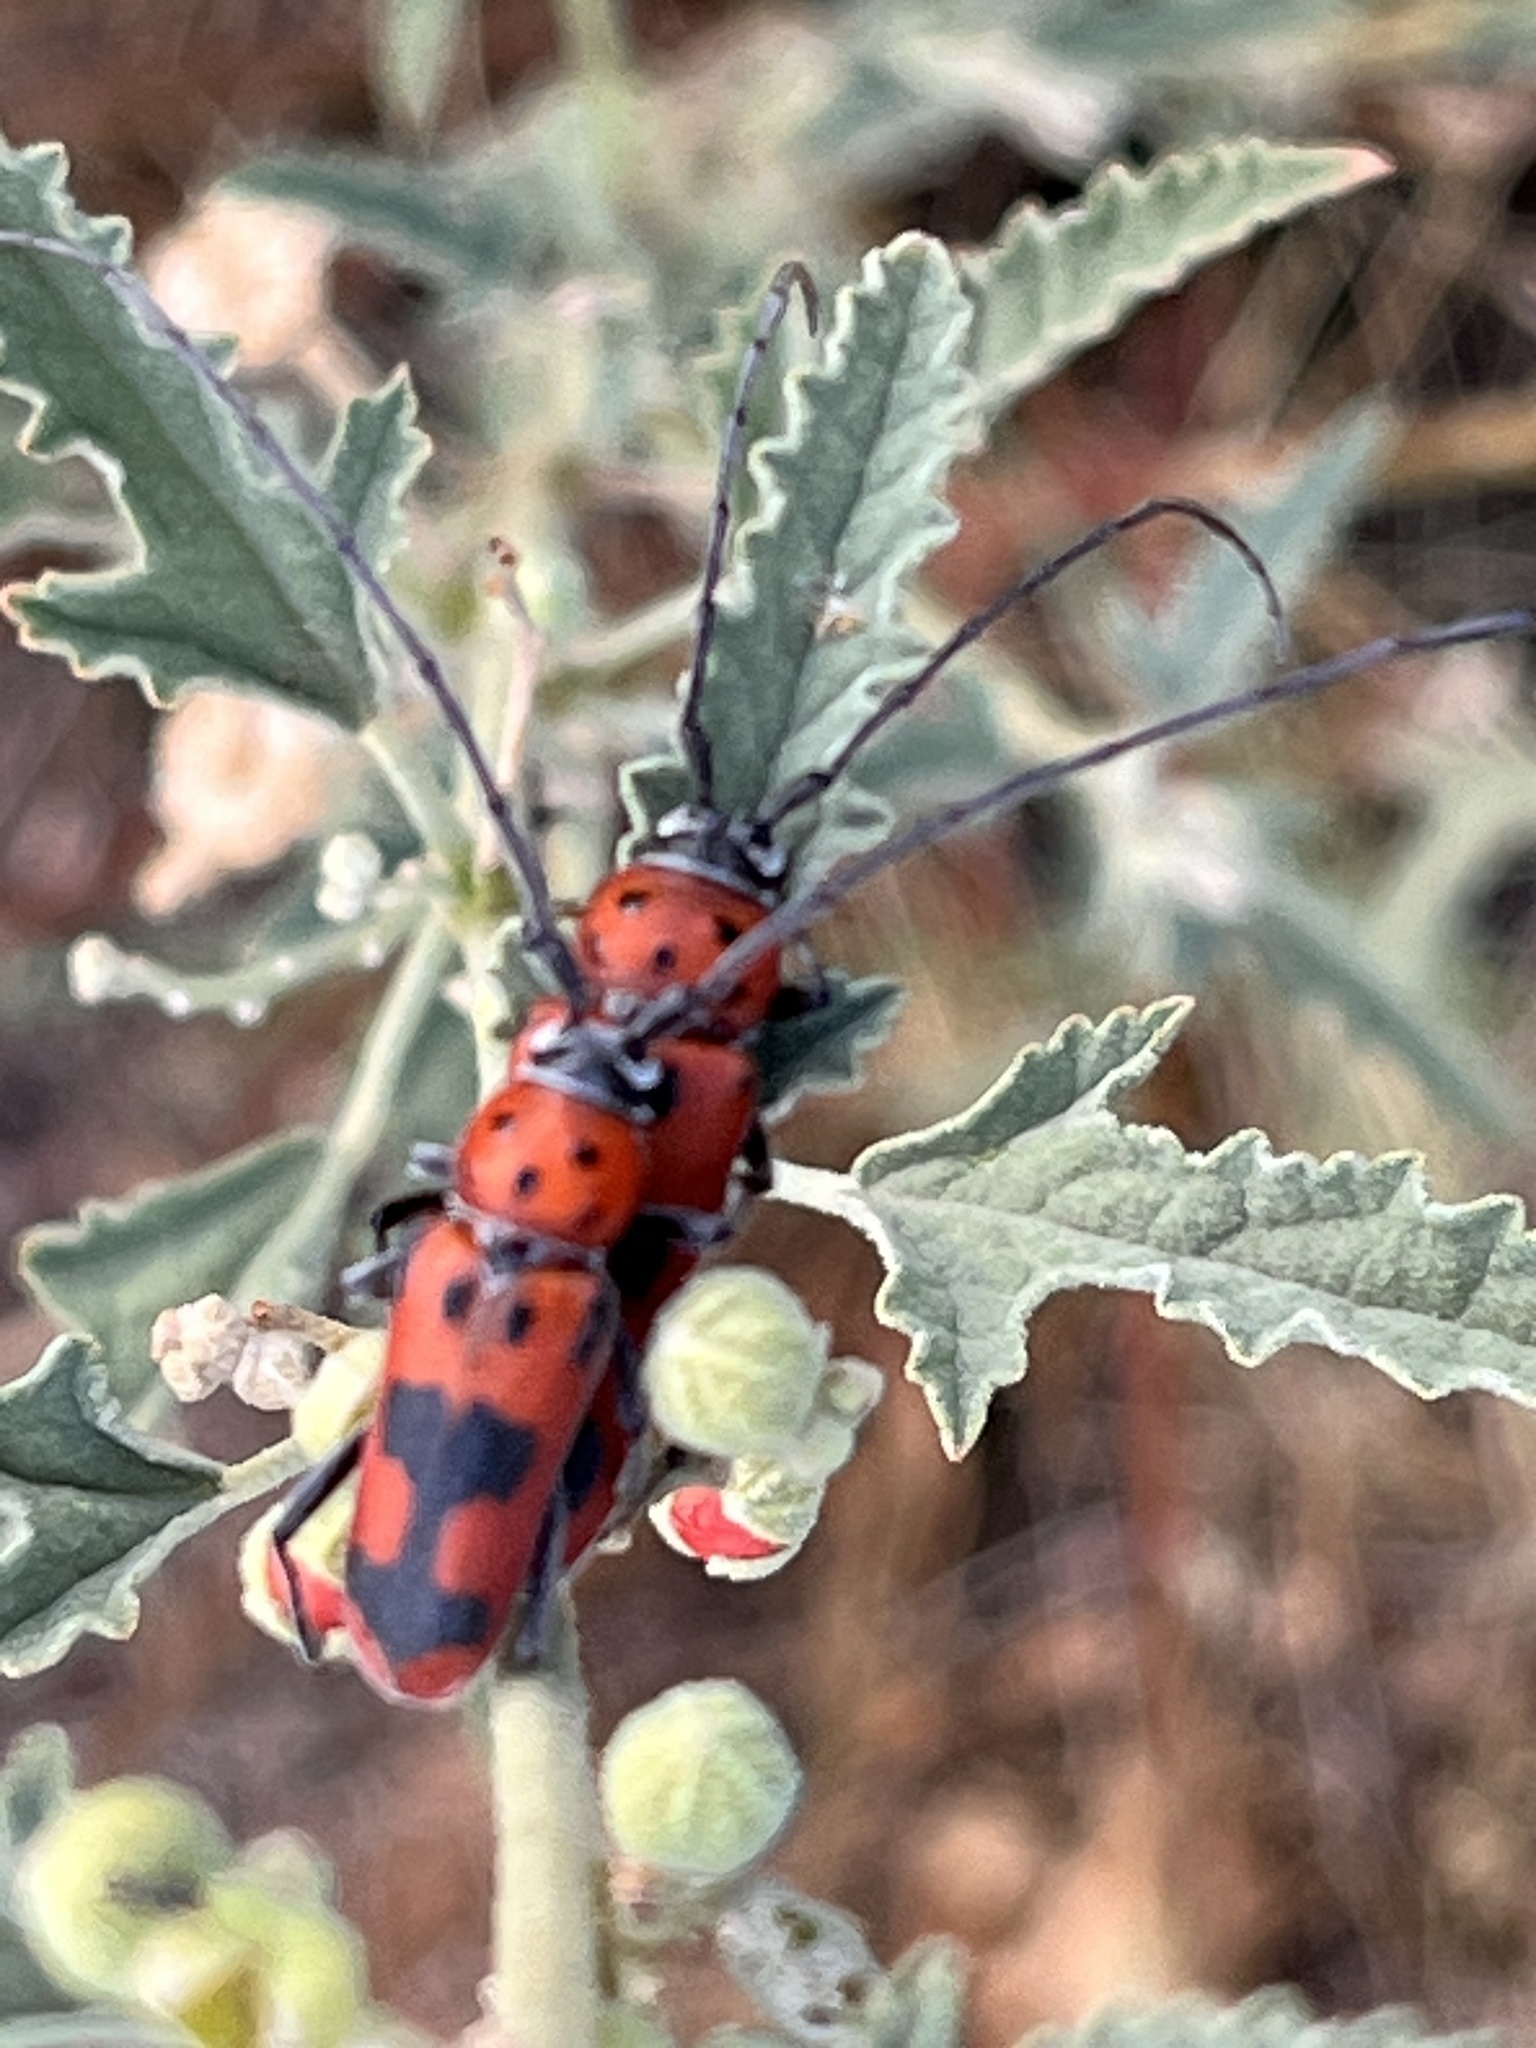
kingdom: Animalia
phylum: Arthropoda
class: Insecta
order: Coleoptera
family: Cerambycidae
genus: Tylosis
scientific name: Tylosis maculatus
